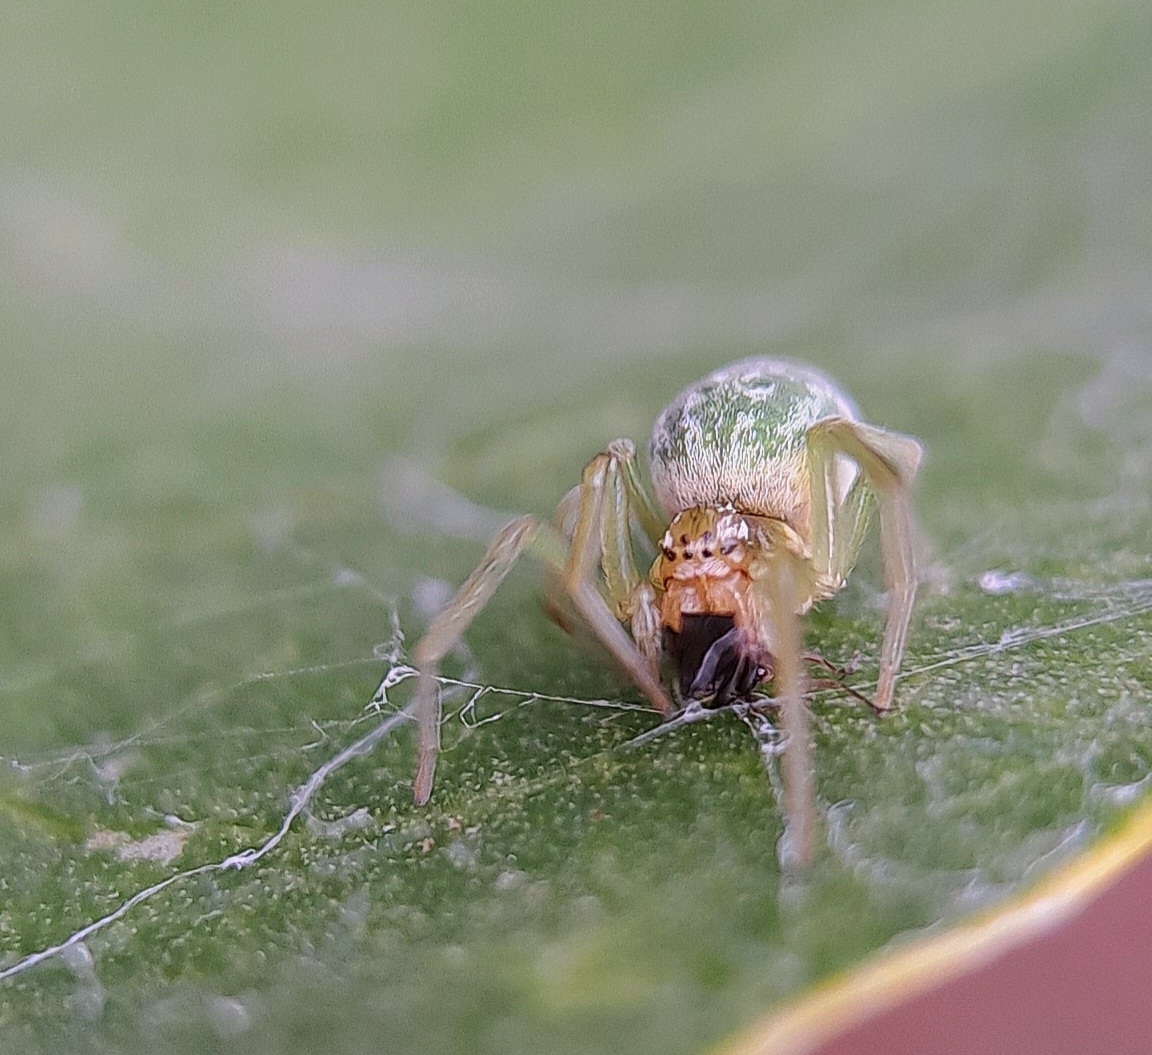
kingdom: Animalia
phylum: Arthropoda
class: Arachnida
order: Araneae
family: Dictynidae
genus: Nigma
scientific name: Nigma walckenaeri
